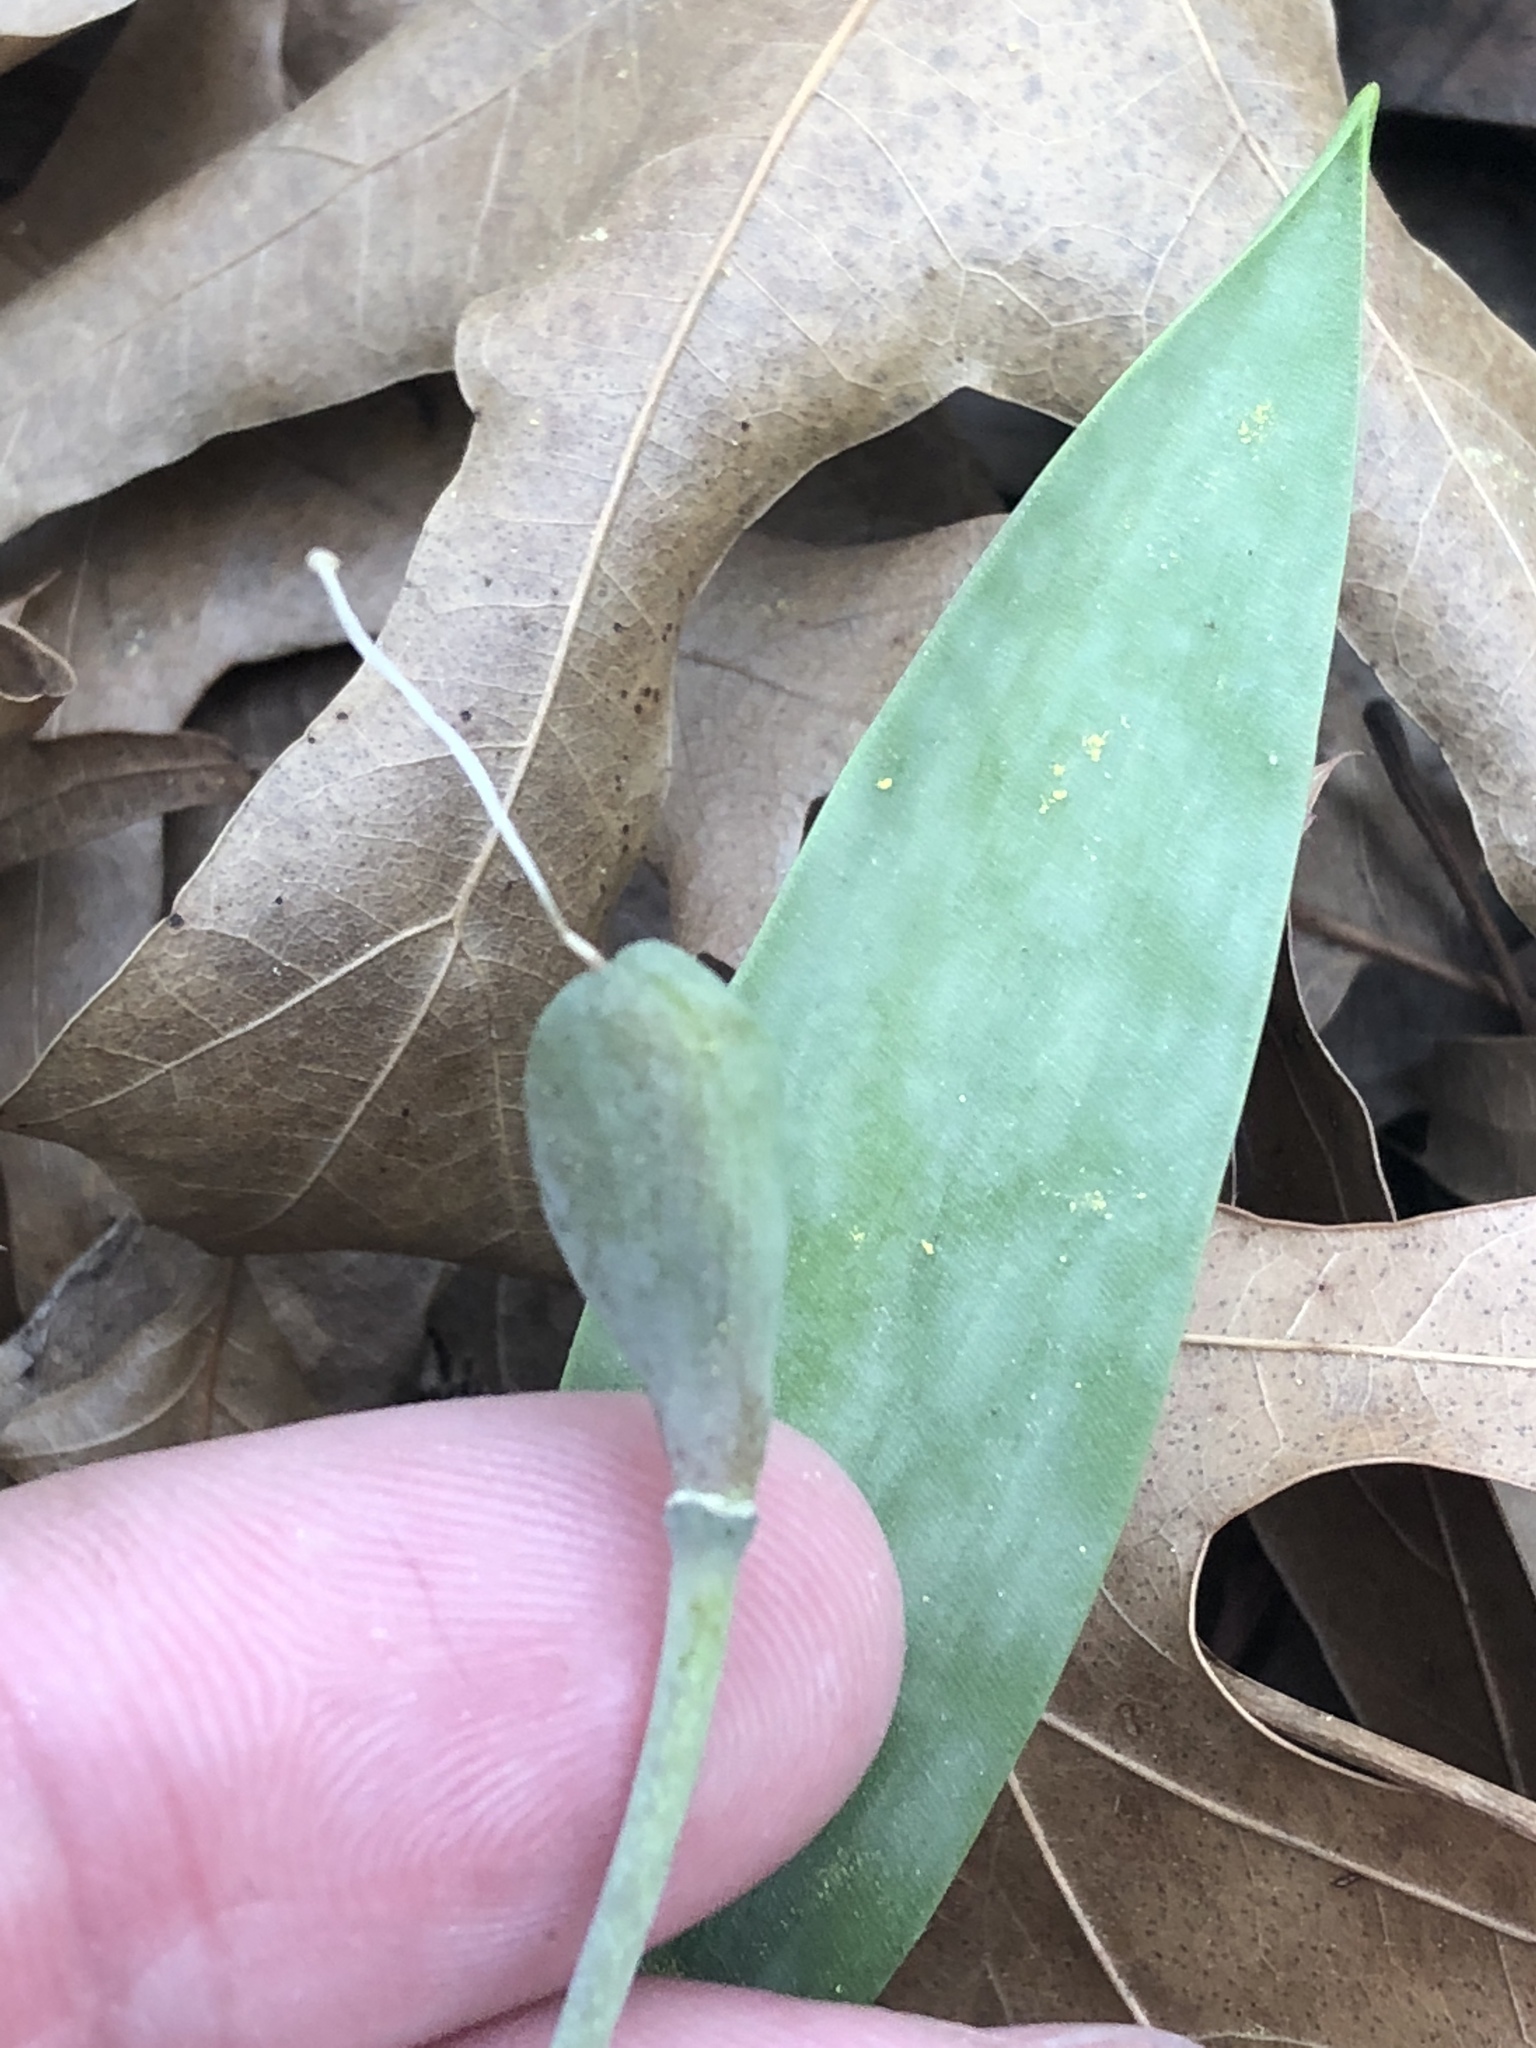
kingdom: Plantae
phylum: Tracheophyta
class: Liliopsida
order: Liliales
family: Liliaceae
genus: Erythronium
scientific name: Erythronium albidum
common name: White trout-lily
